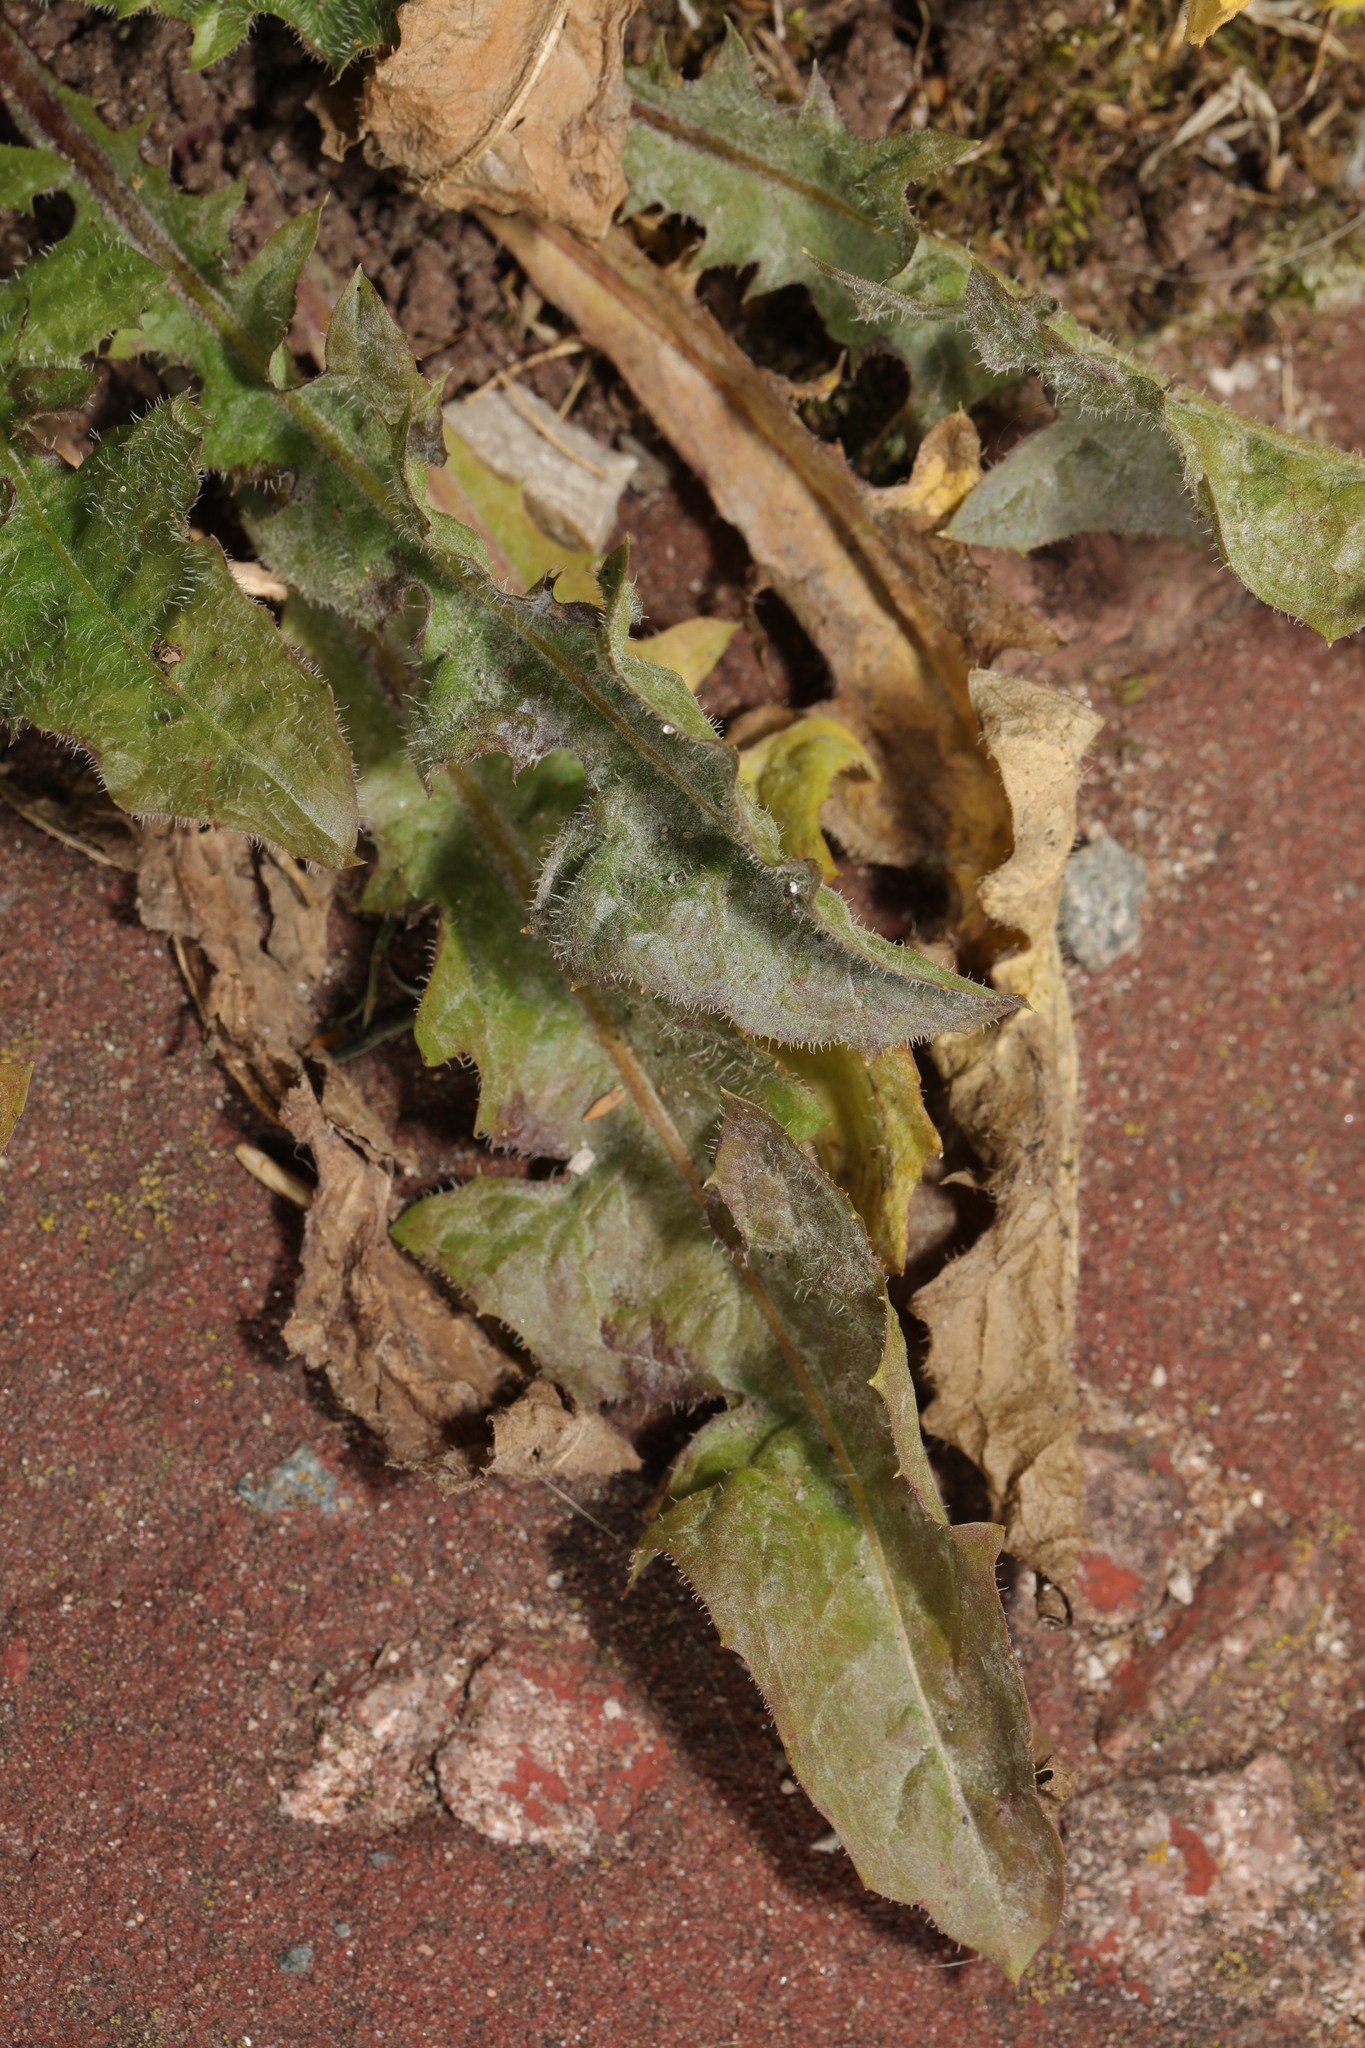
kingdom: Plantae
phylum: Tracheophyta
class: Magnoliopsida
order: Asterales
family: Asteraceae
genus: Hypochaeris
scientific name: Hypochaeris radicata
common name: Flatweed
